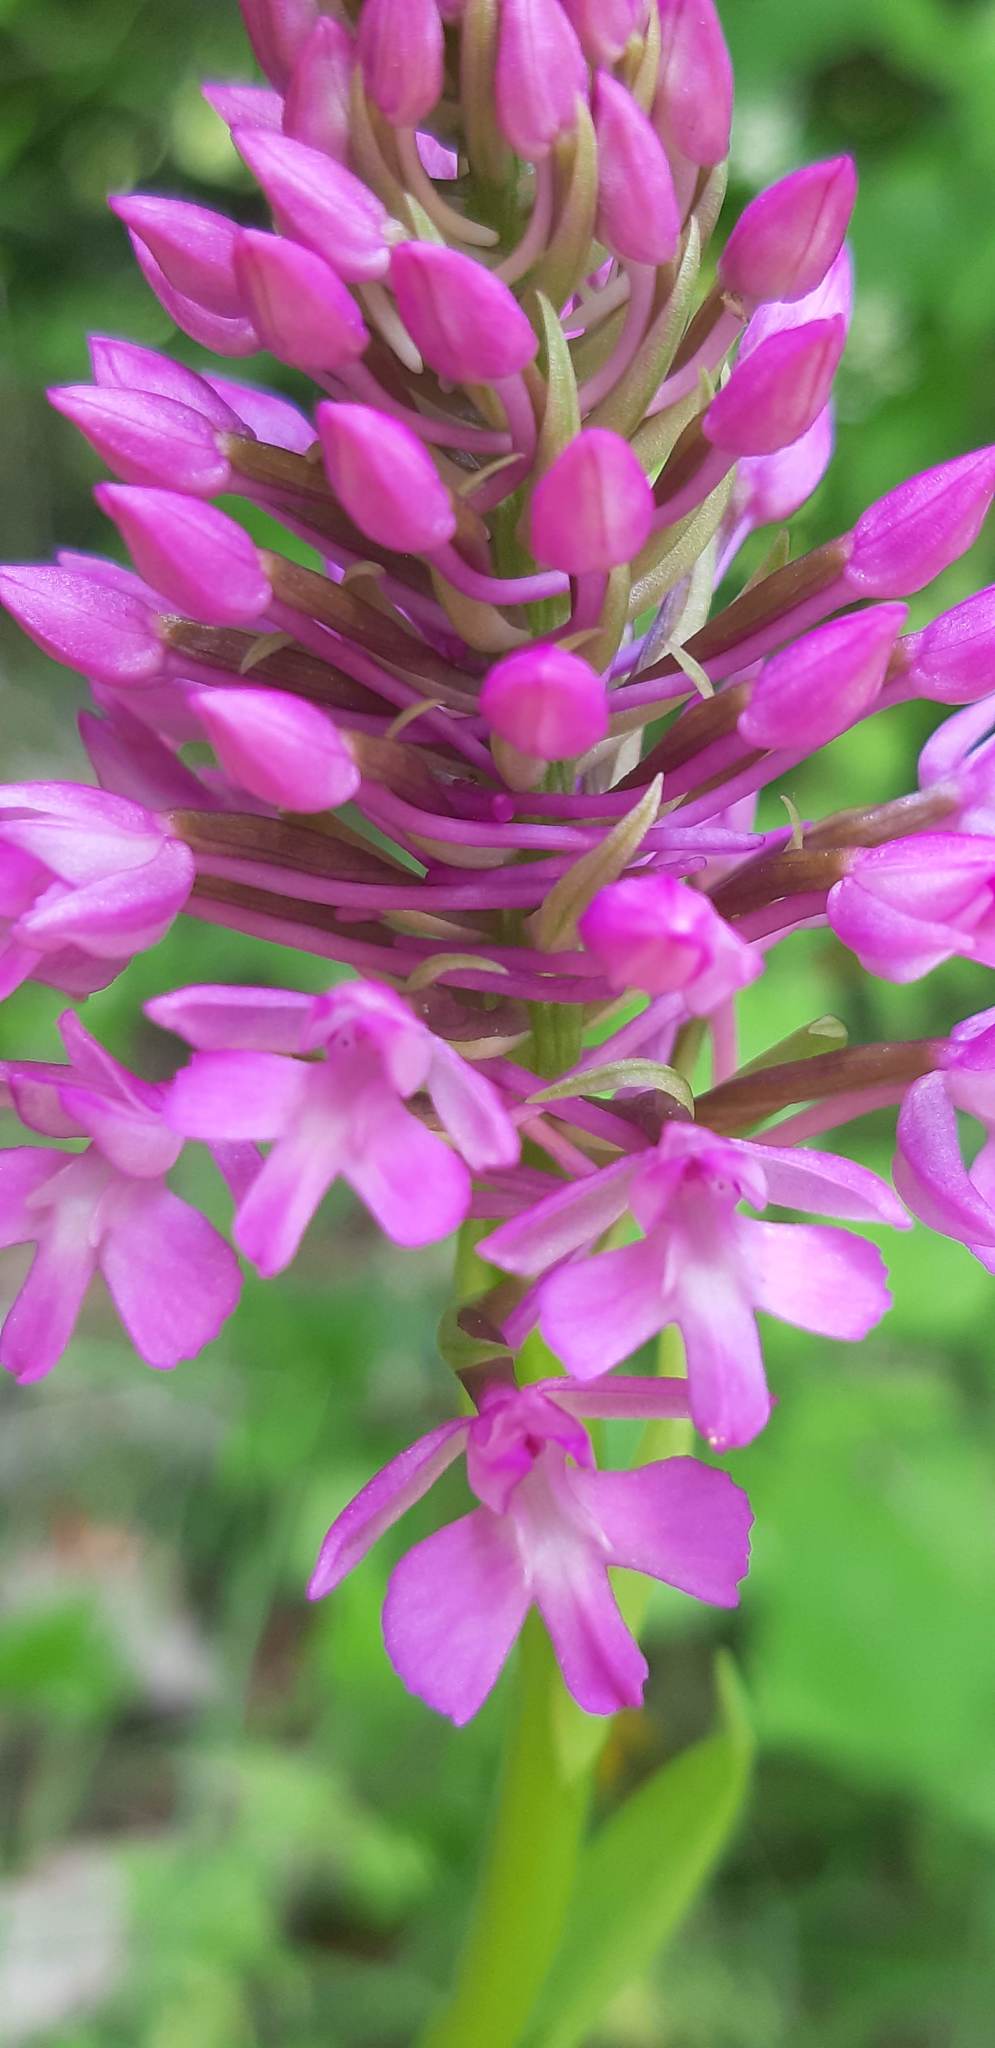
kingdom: Plantae
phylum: Tracheophyta
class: Liliopsida
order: Asparagales
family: Orchidaceae
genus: Anacamptis
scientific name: Anacamptis pyramidalis
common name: Pyramidal orchid
